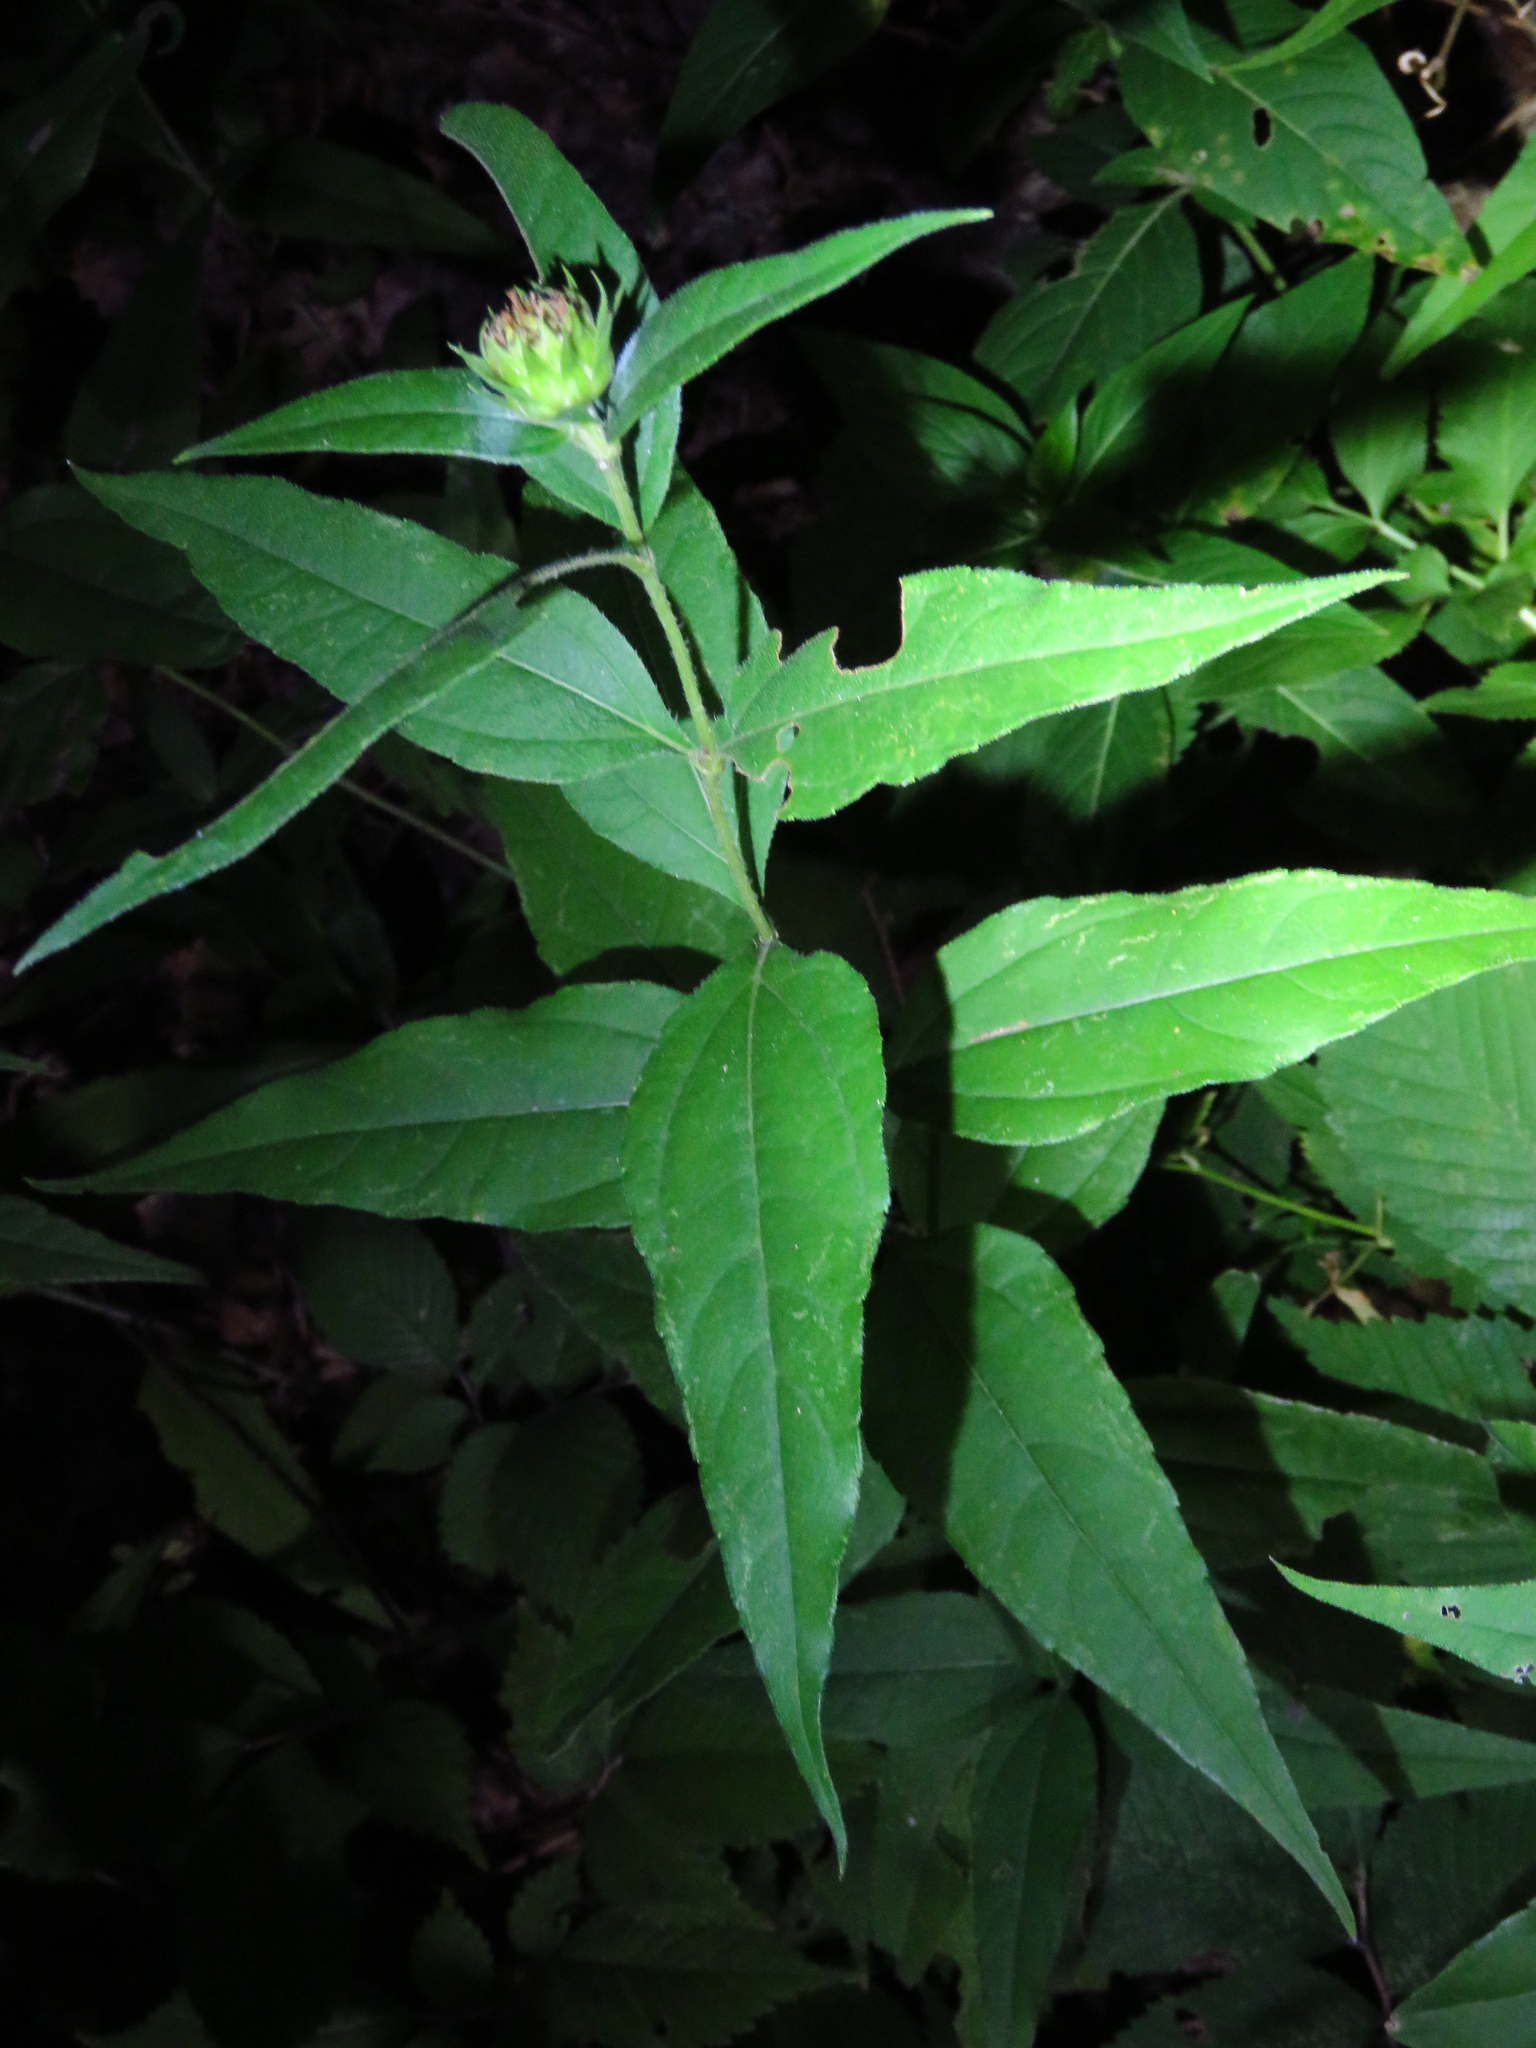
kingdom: Plantae
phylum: Tracheophyta
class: Magnoliopsida
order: Asterales
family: Asteraceae
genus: Helianthus
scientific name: Helianthus hirsutus
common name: Hairy sunflower
